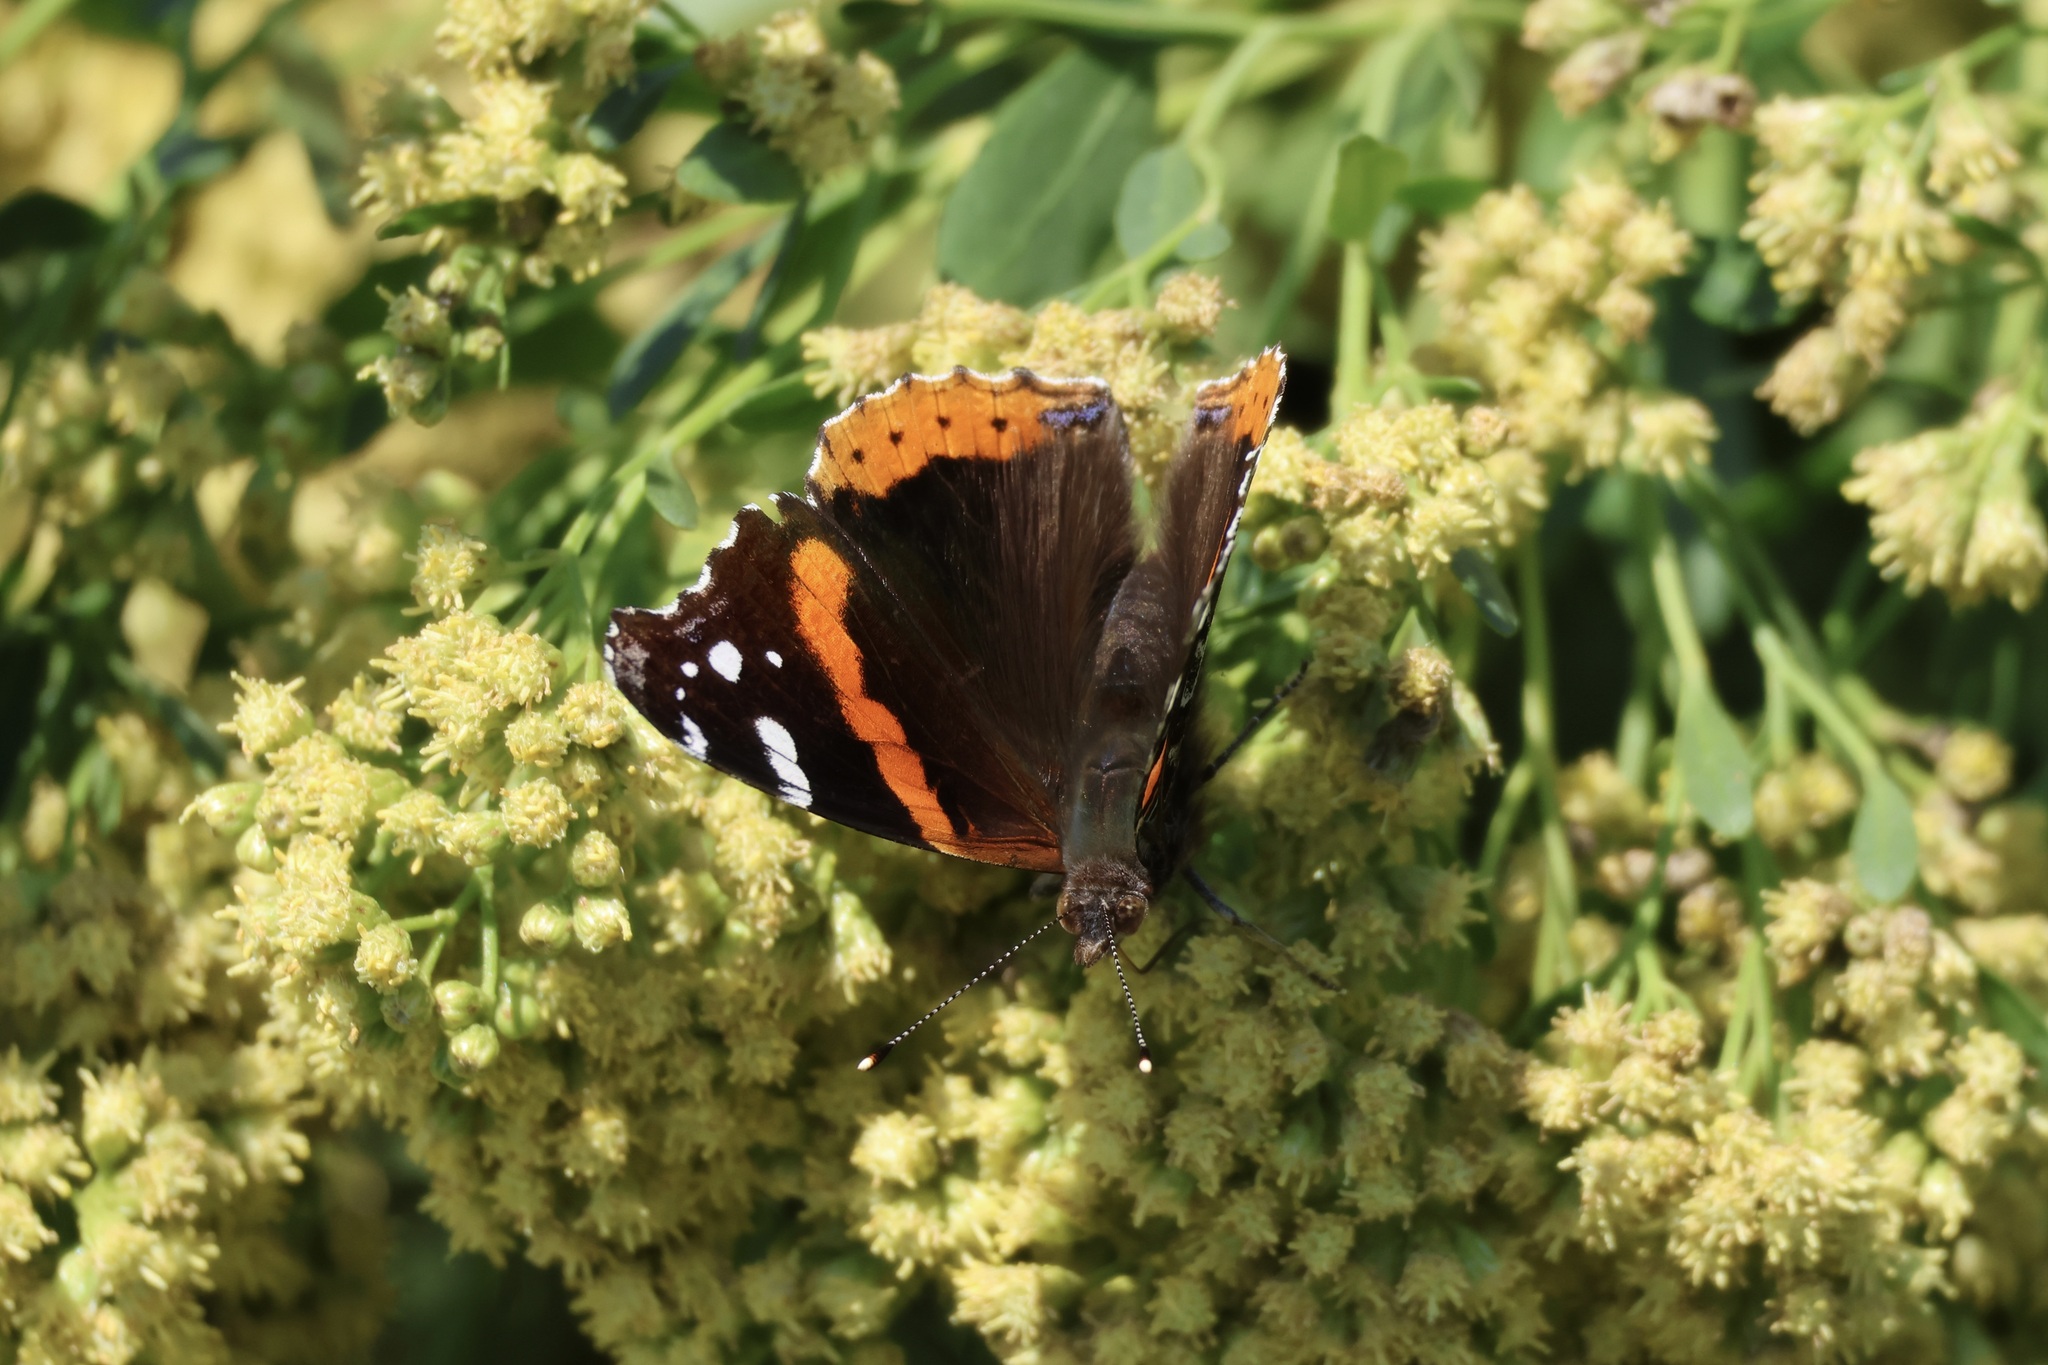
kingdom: Animalia
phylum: Arthropoda
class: Insecta
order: Lepidoptera
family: Nymphalidae
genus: Vanessa
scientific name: Vanessa atalanta
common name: Red admiral
